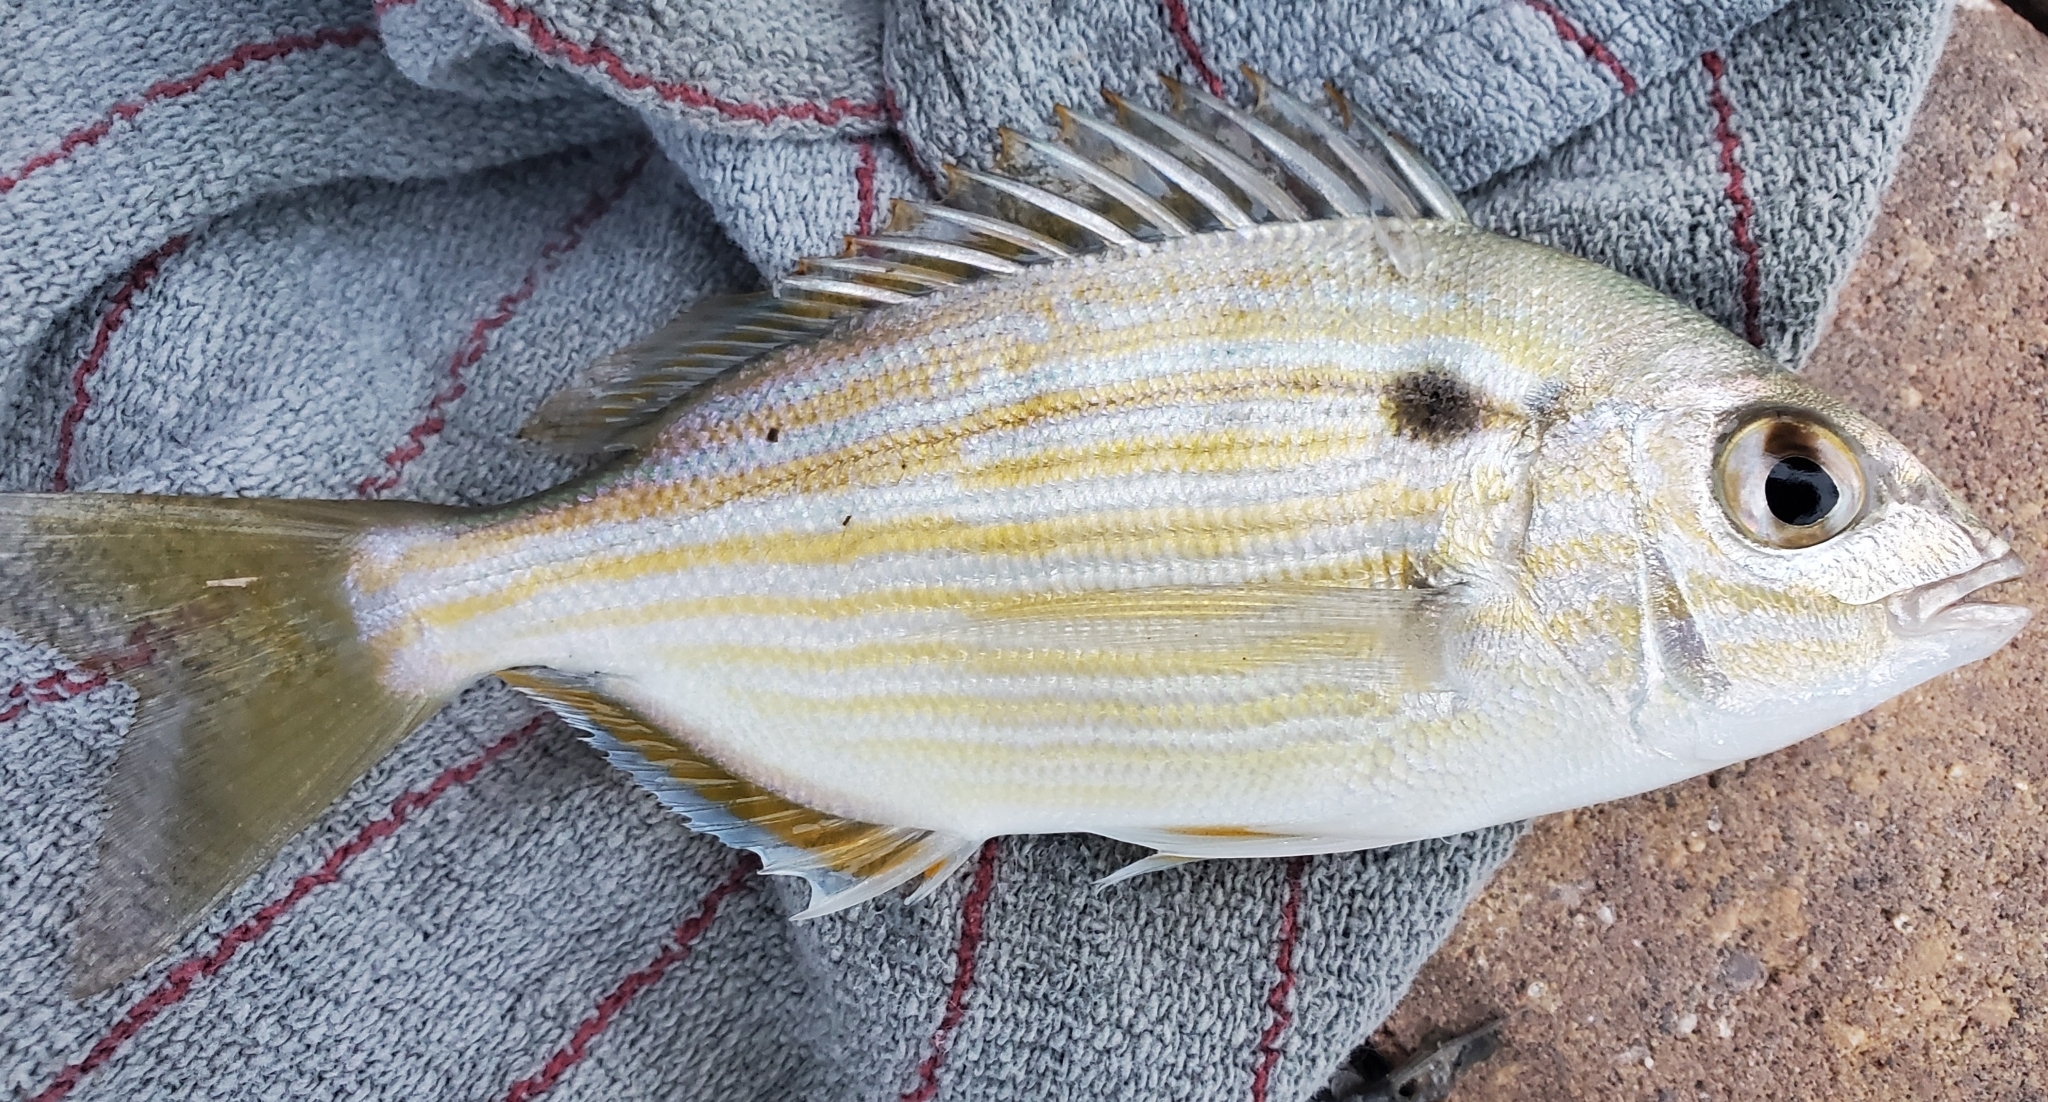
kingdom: Animalia
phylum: Chordata
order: Perciformes
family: Sparidae
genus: Lagodon
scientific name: Lagodon rhomboides
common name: Pinfish
